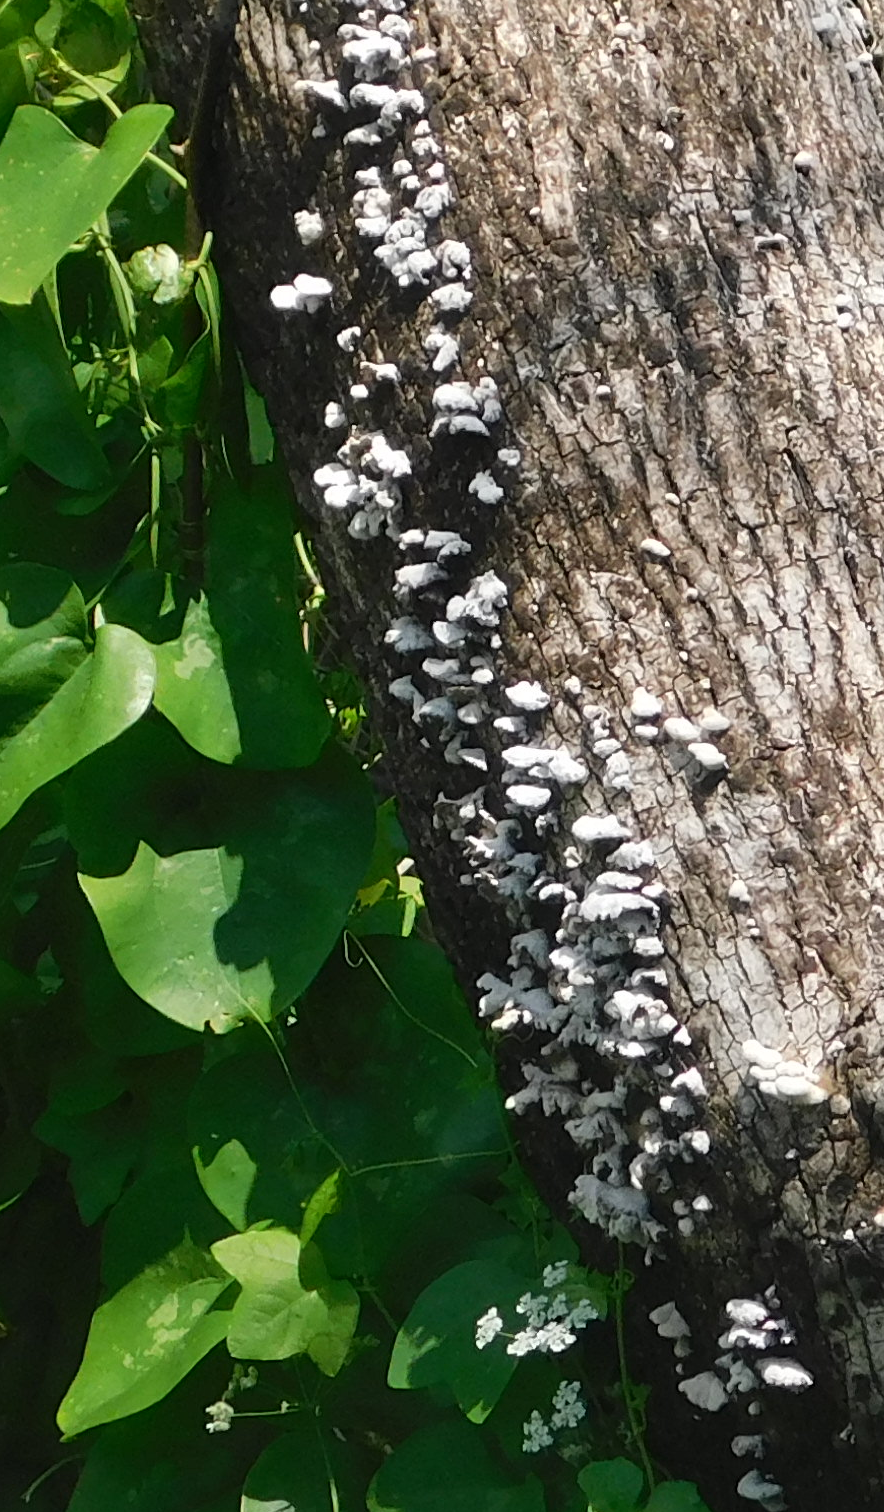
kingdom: Fungi
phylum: Basidiomycota
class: Agaricomycetes
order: Agaricales
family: Schizophyllaceae
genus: Schizophyllum
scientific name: Schizophyllum commune
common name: Common porecrust
